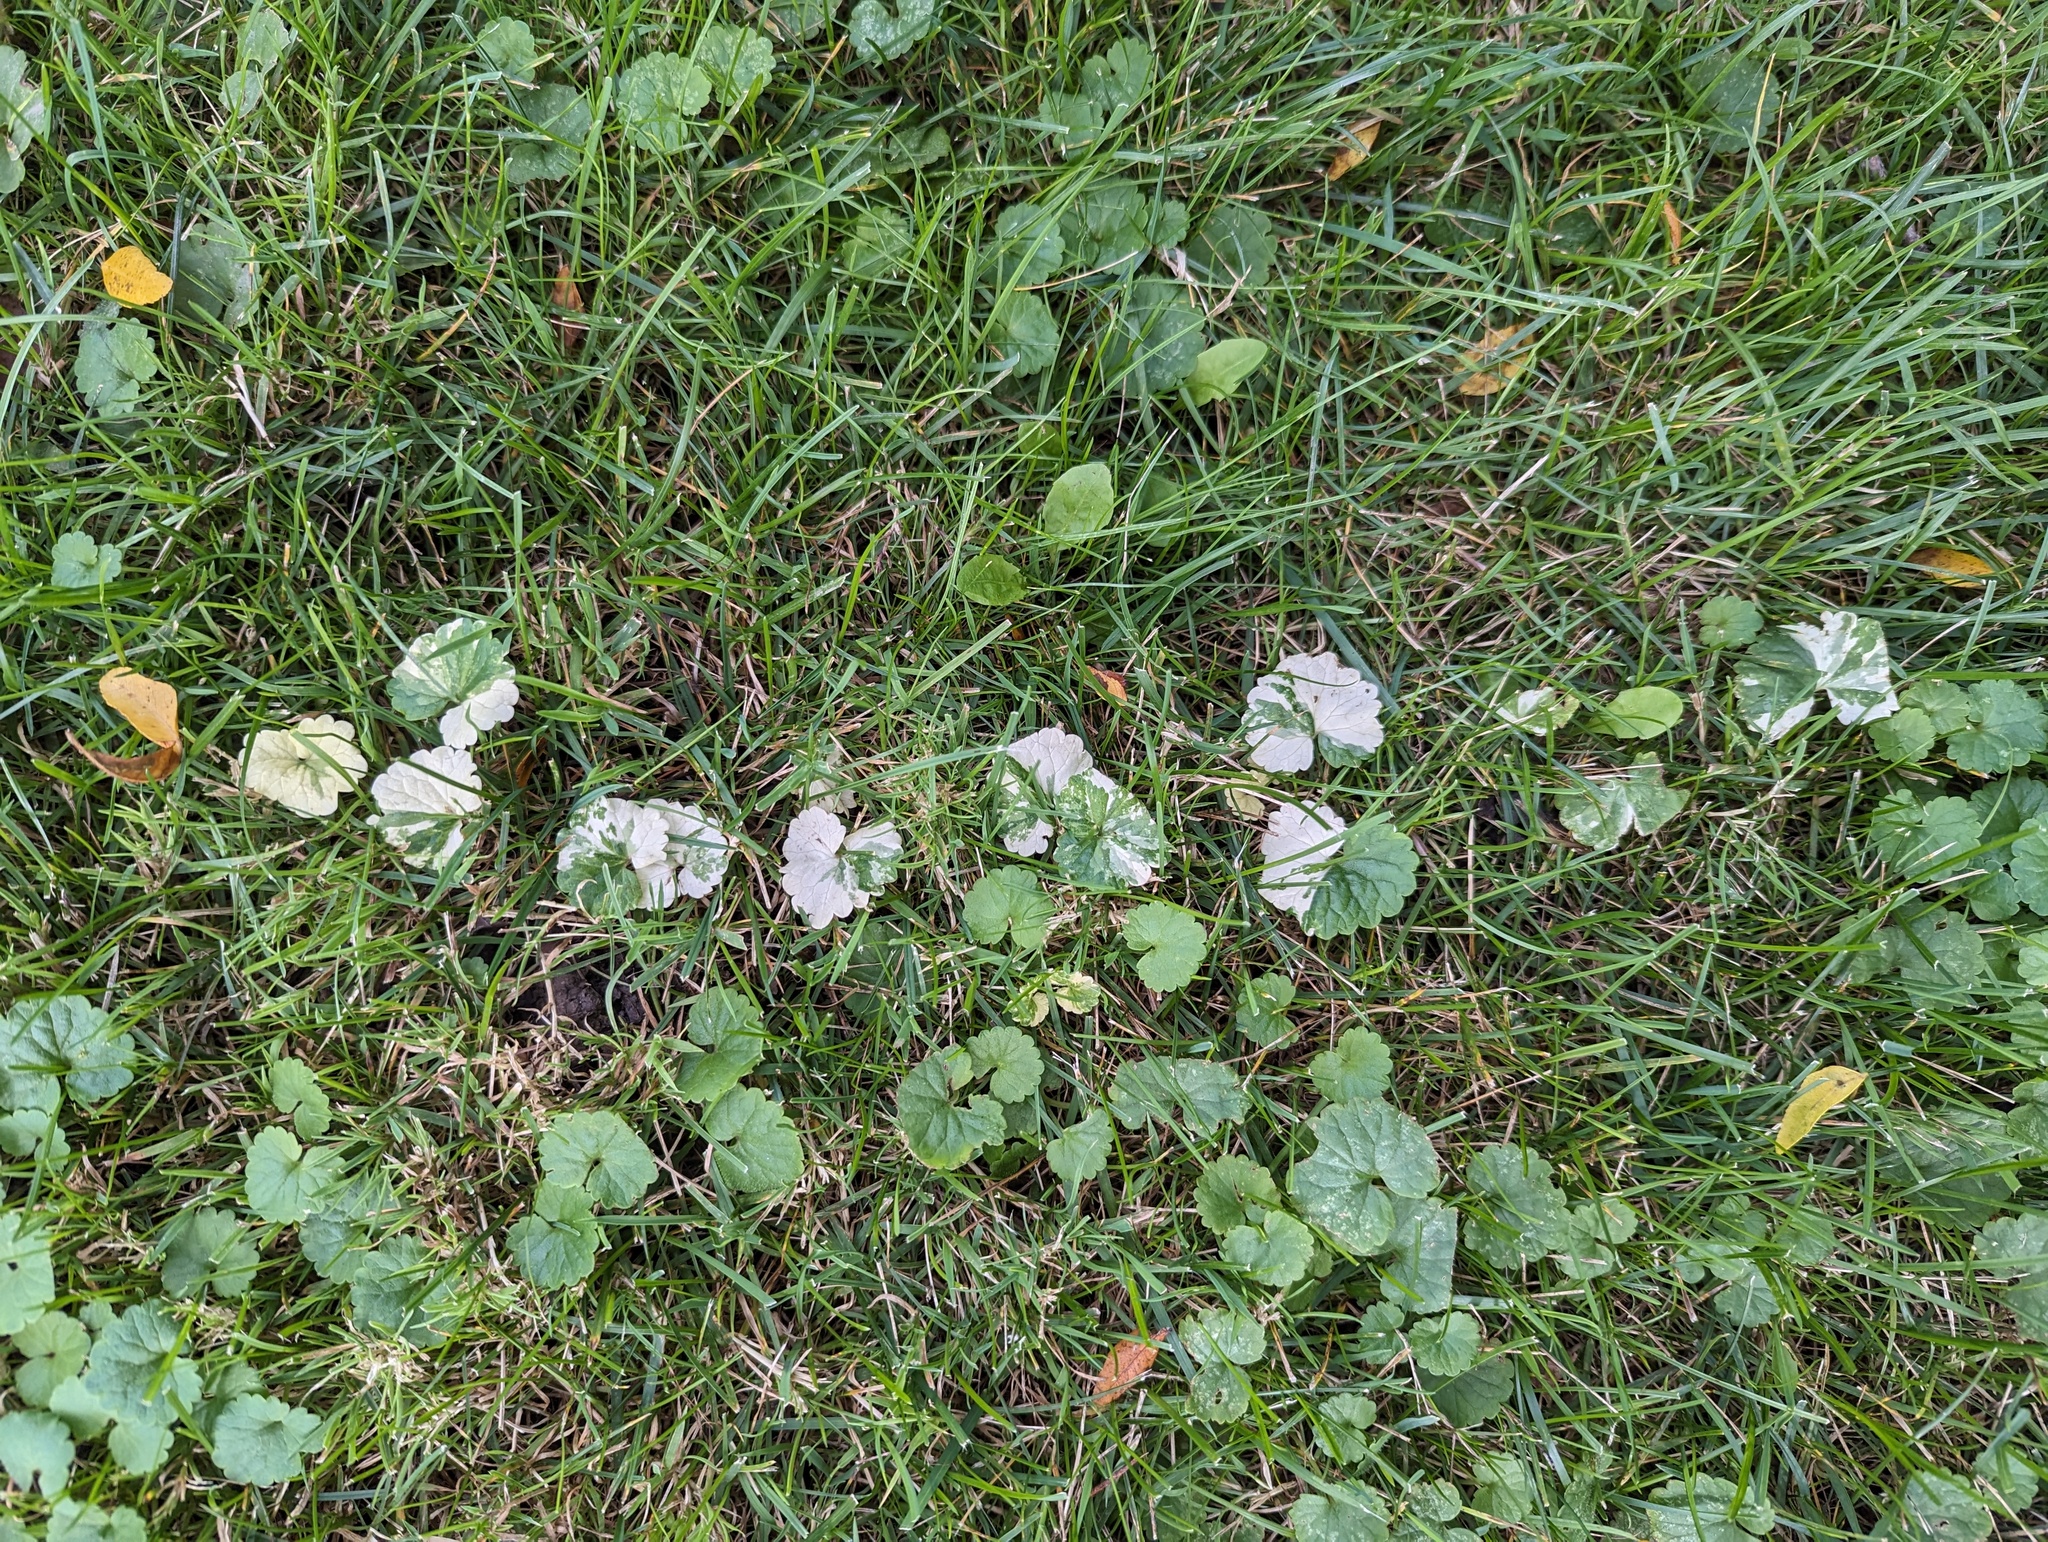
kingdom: Plantae
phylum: Tracheophyta
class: Magnoliopsida
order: Lamiales
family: Lamiaceae
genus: Glechoma
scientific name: Glechoma hederacea
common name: Ground ivy
